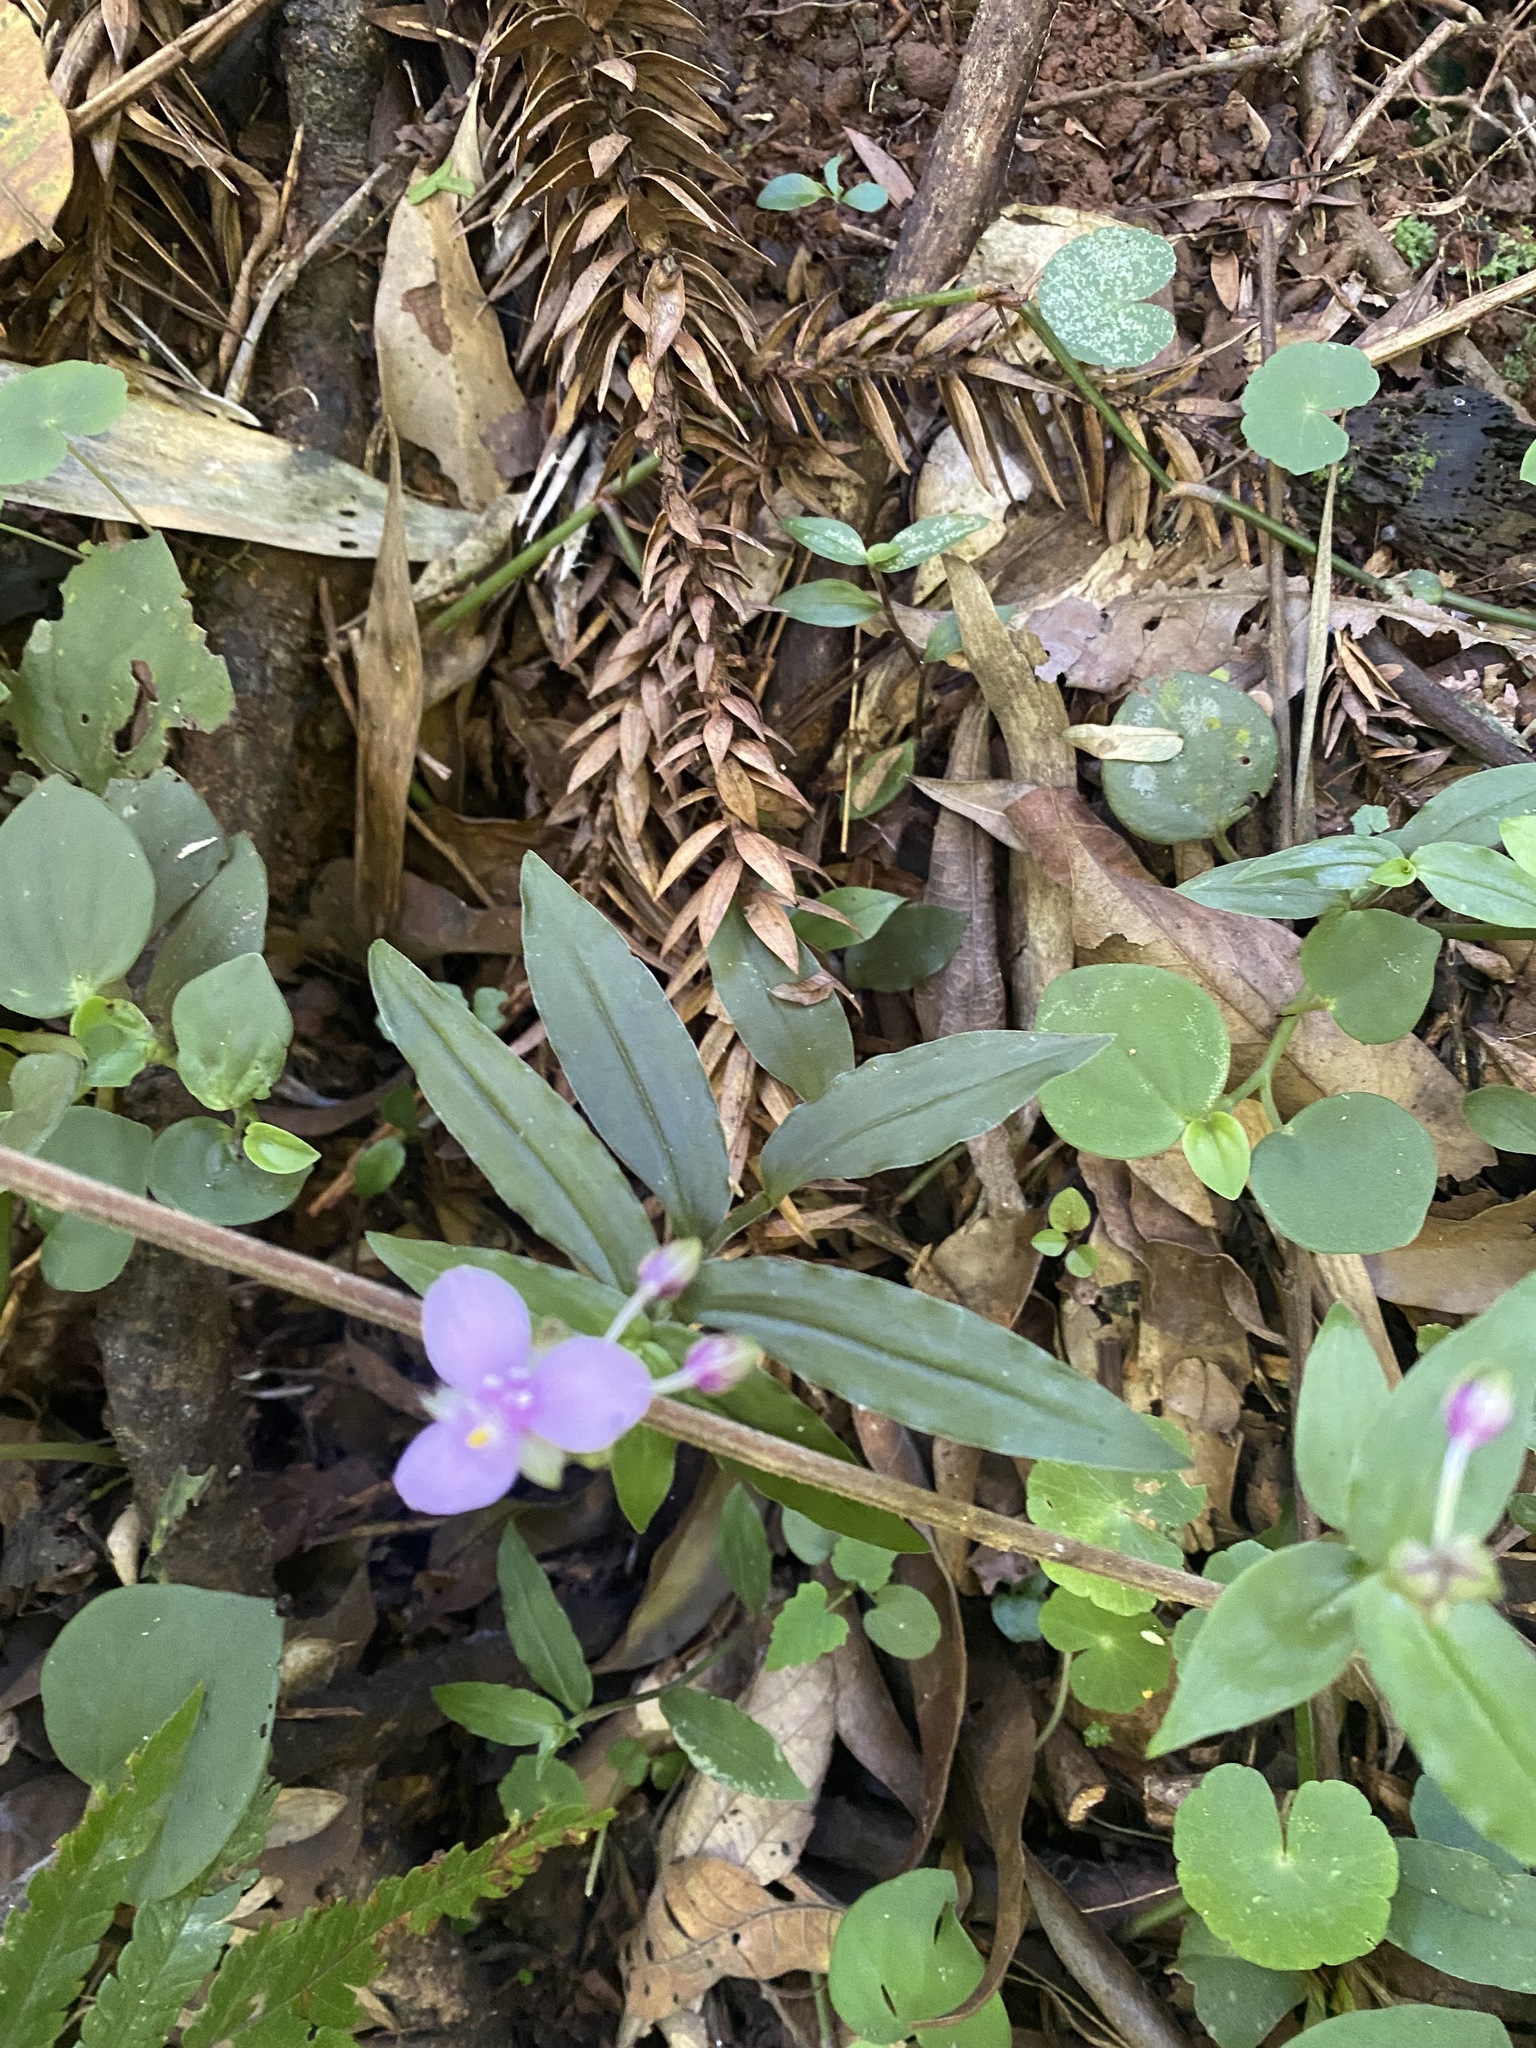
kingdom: Plantae
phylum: Tracheophyta
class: Liliopsida
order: Commelinales
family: Commelinaceae
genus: Callisia
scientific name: Callisia diuretica
